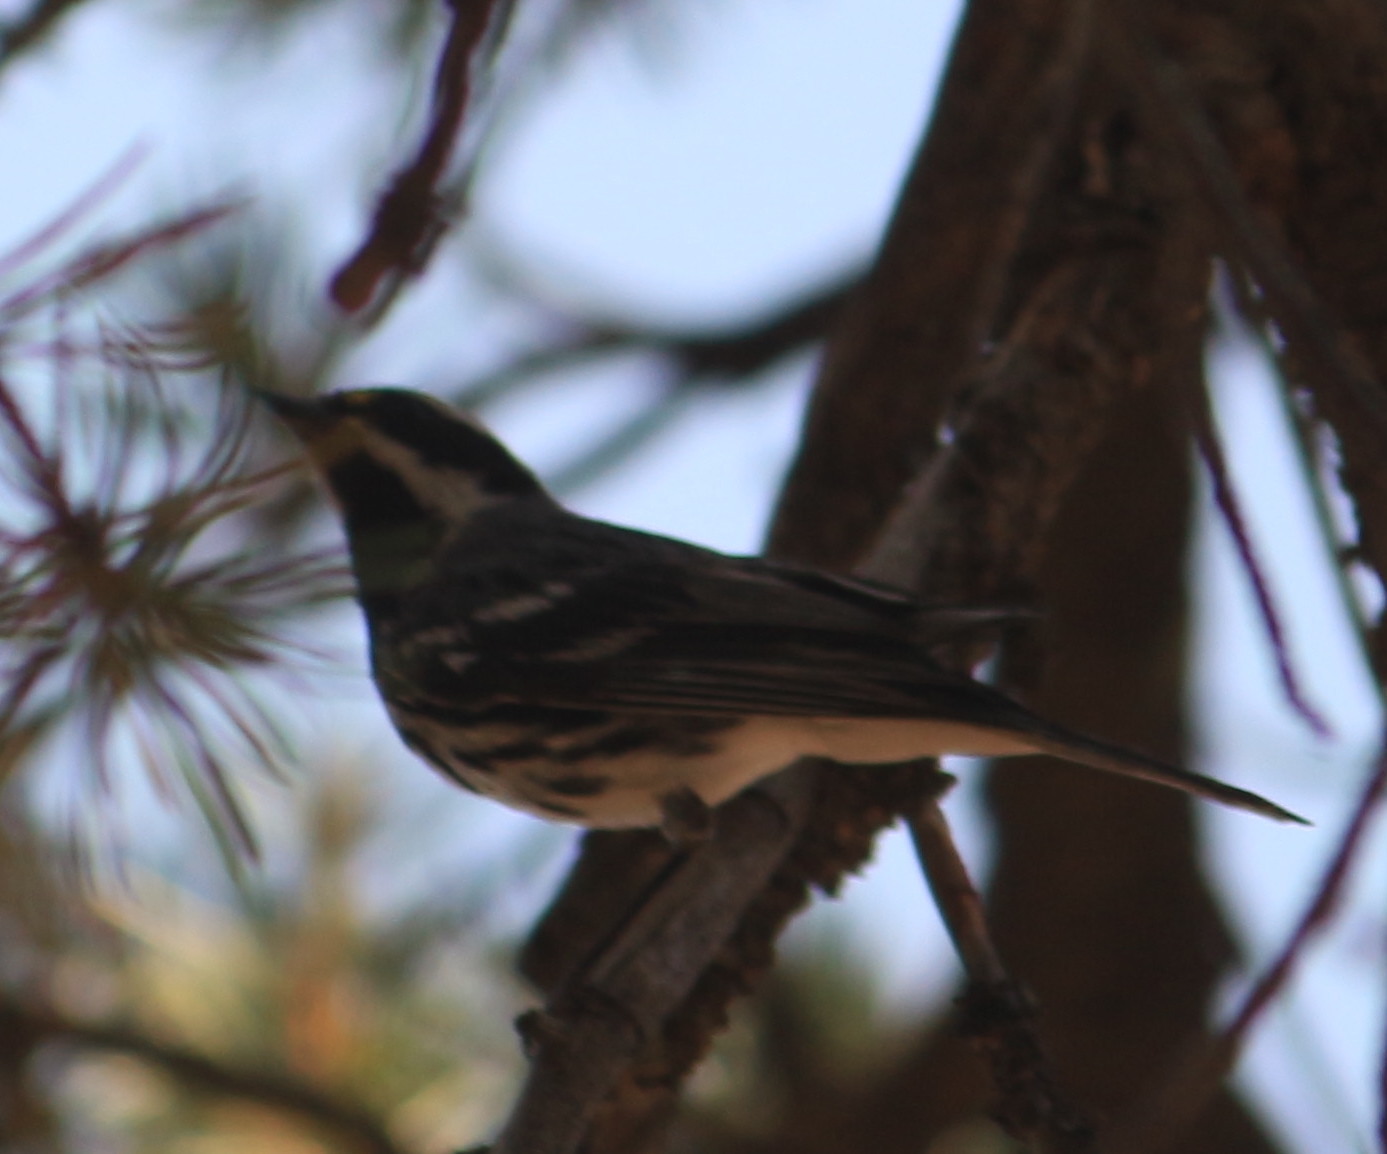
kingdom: Animalia
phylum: Chordata
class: Aves
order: Passeriformes
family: Parulidae
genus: Setophaga
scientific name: Setophaga nigrescens
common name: Black-throated gray warbler
